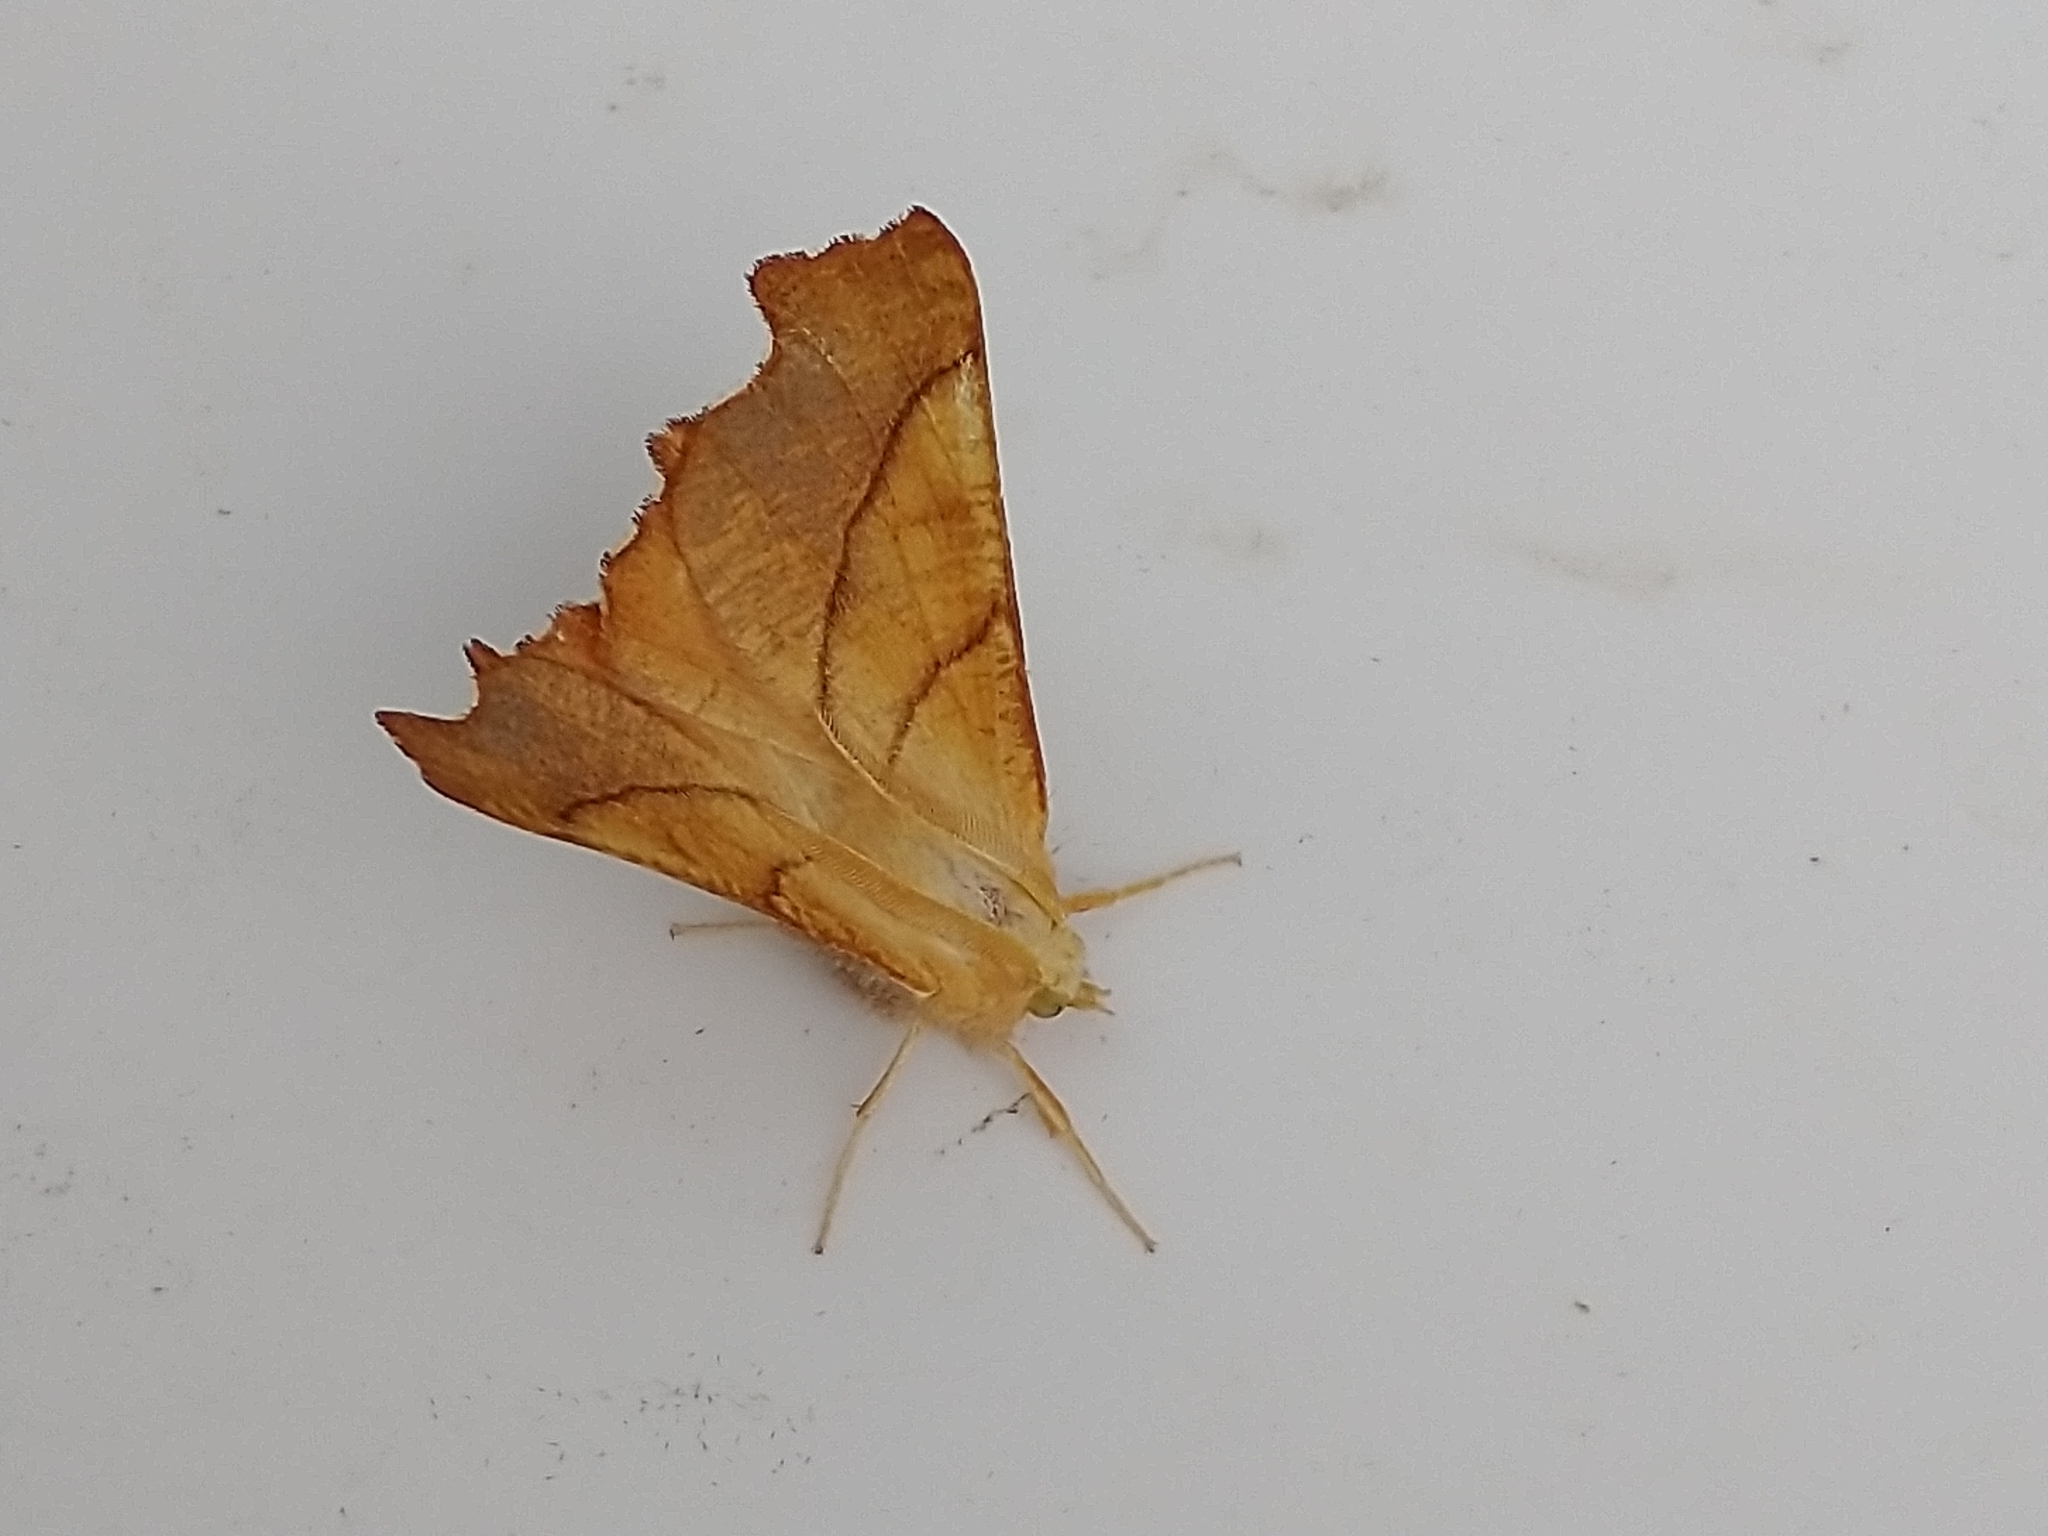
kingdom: Animalia
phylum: Arthropoda
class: Insecta
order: Lepidoptera
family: Geometridae
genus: Ennomos
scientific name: Ennomos fuscantaria
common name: Dusky thorn
